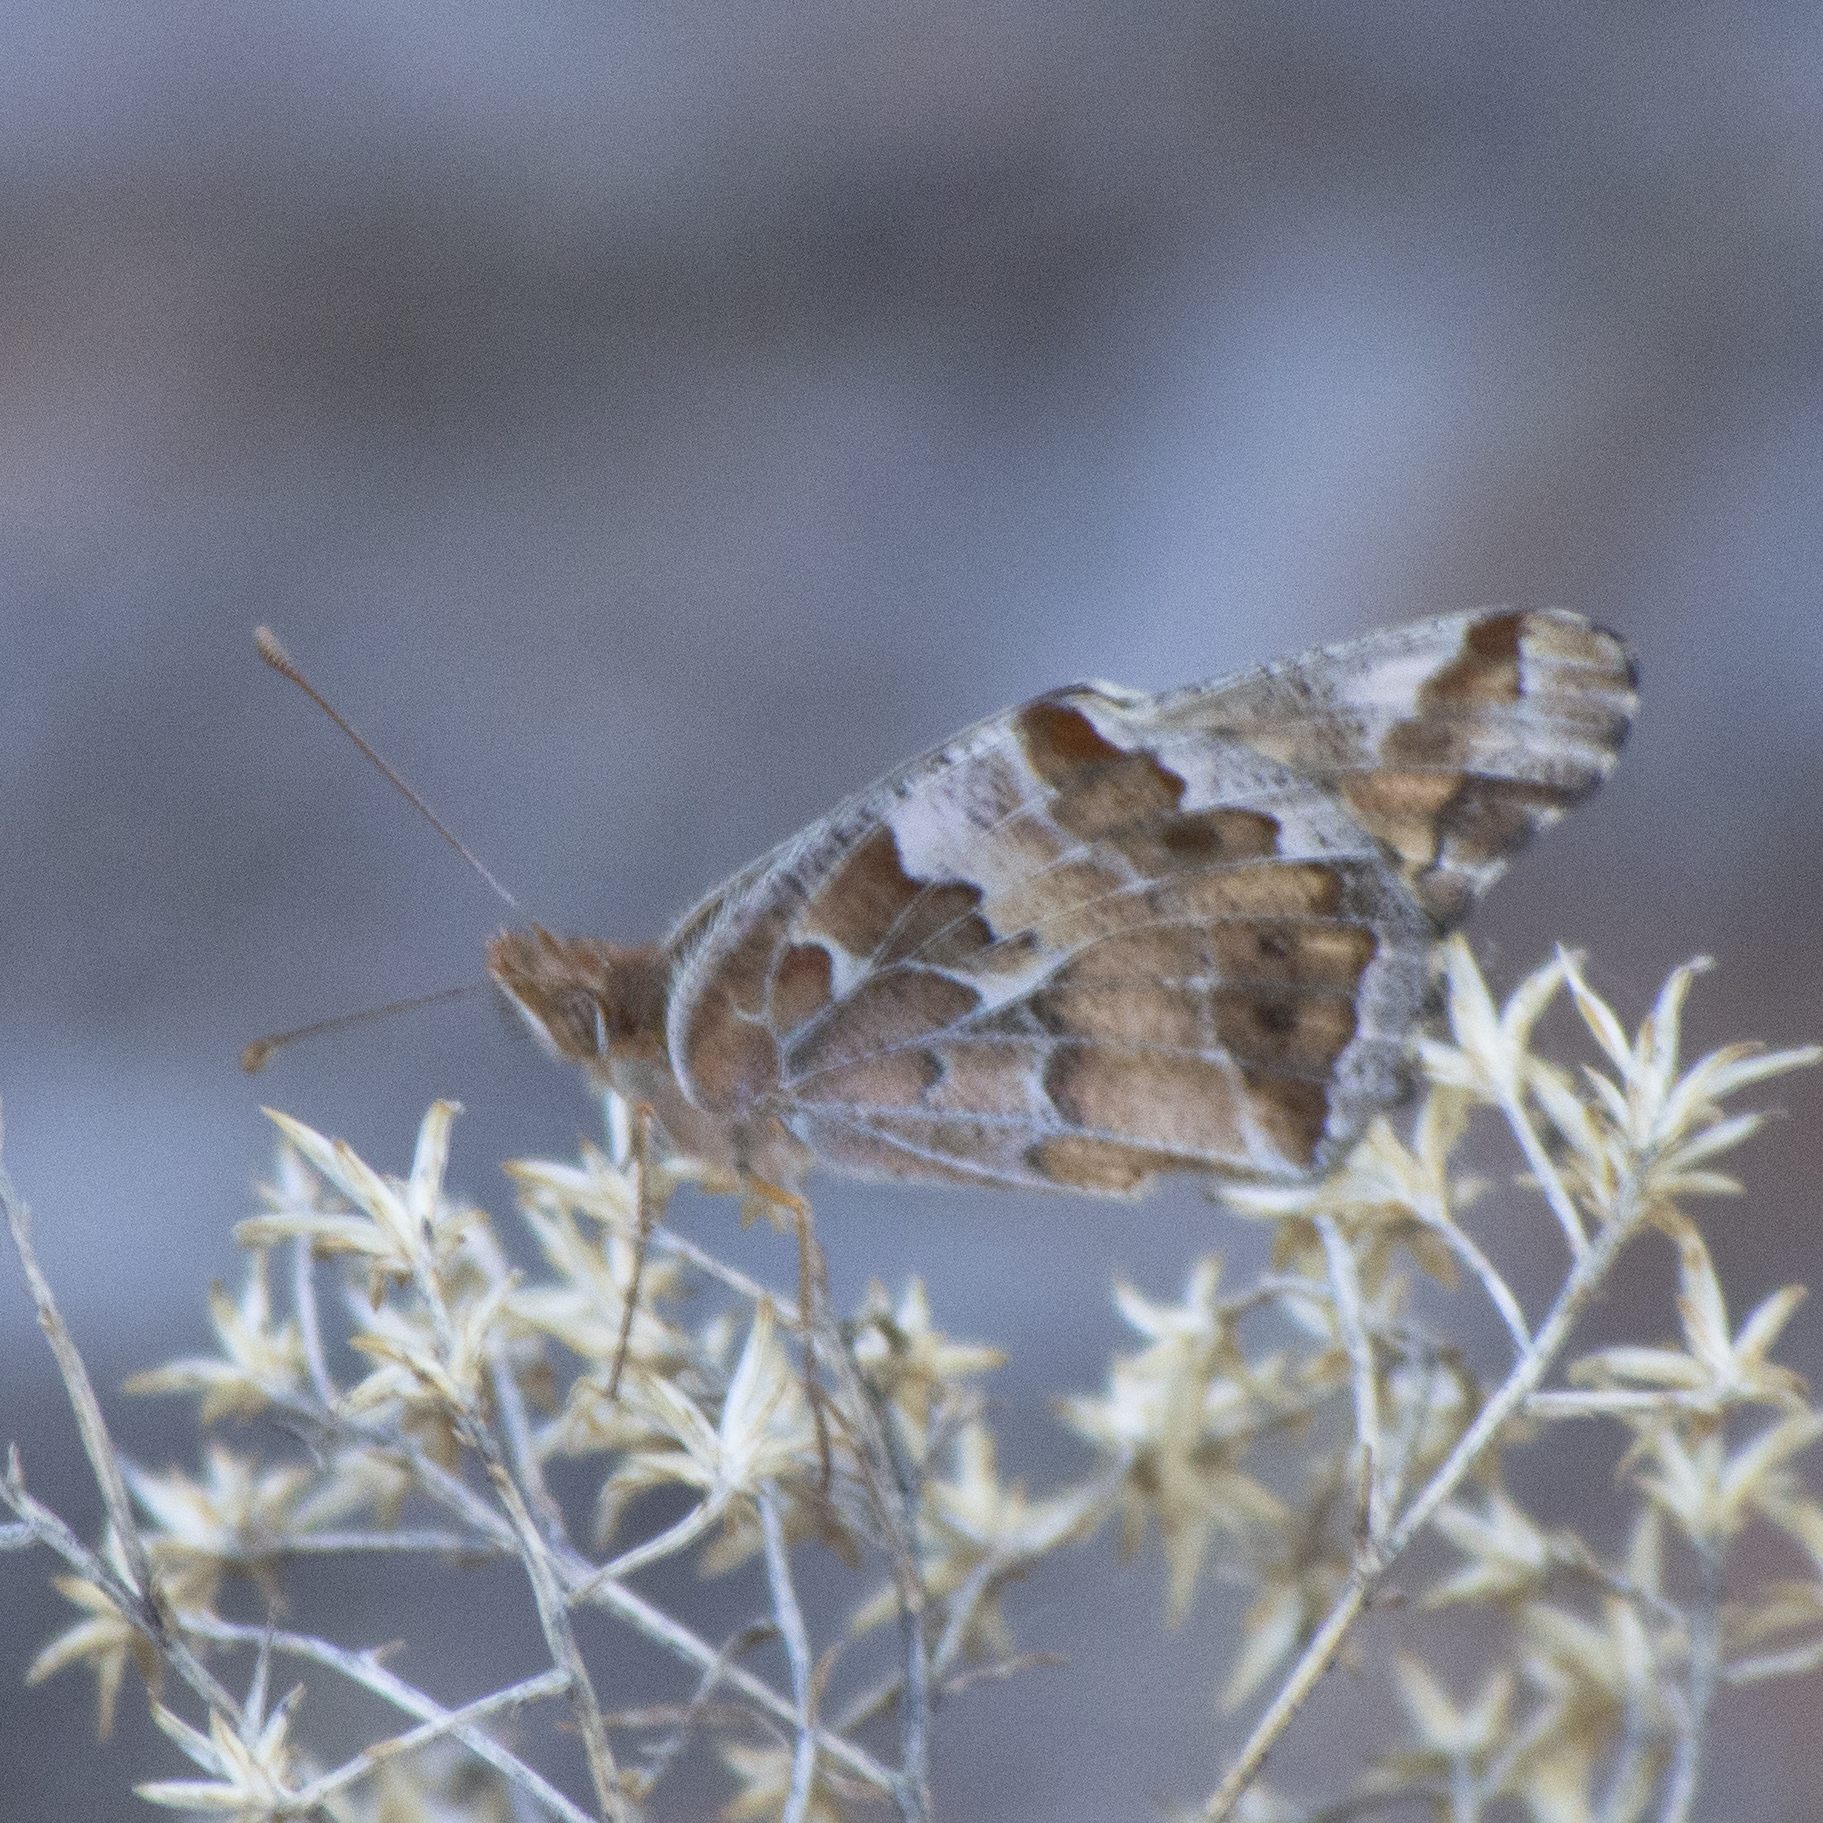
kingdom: Animalia
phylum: Arthropoda
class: Insecta
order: Lepidoptera
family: Nymphalidae
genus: Euptoieta
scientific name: Euptoieta claudia
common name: Variegated fritillary
